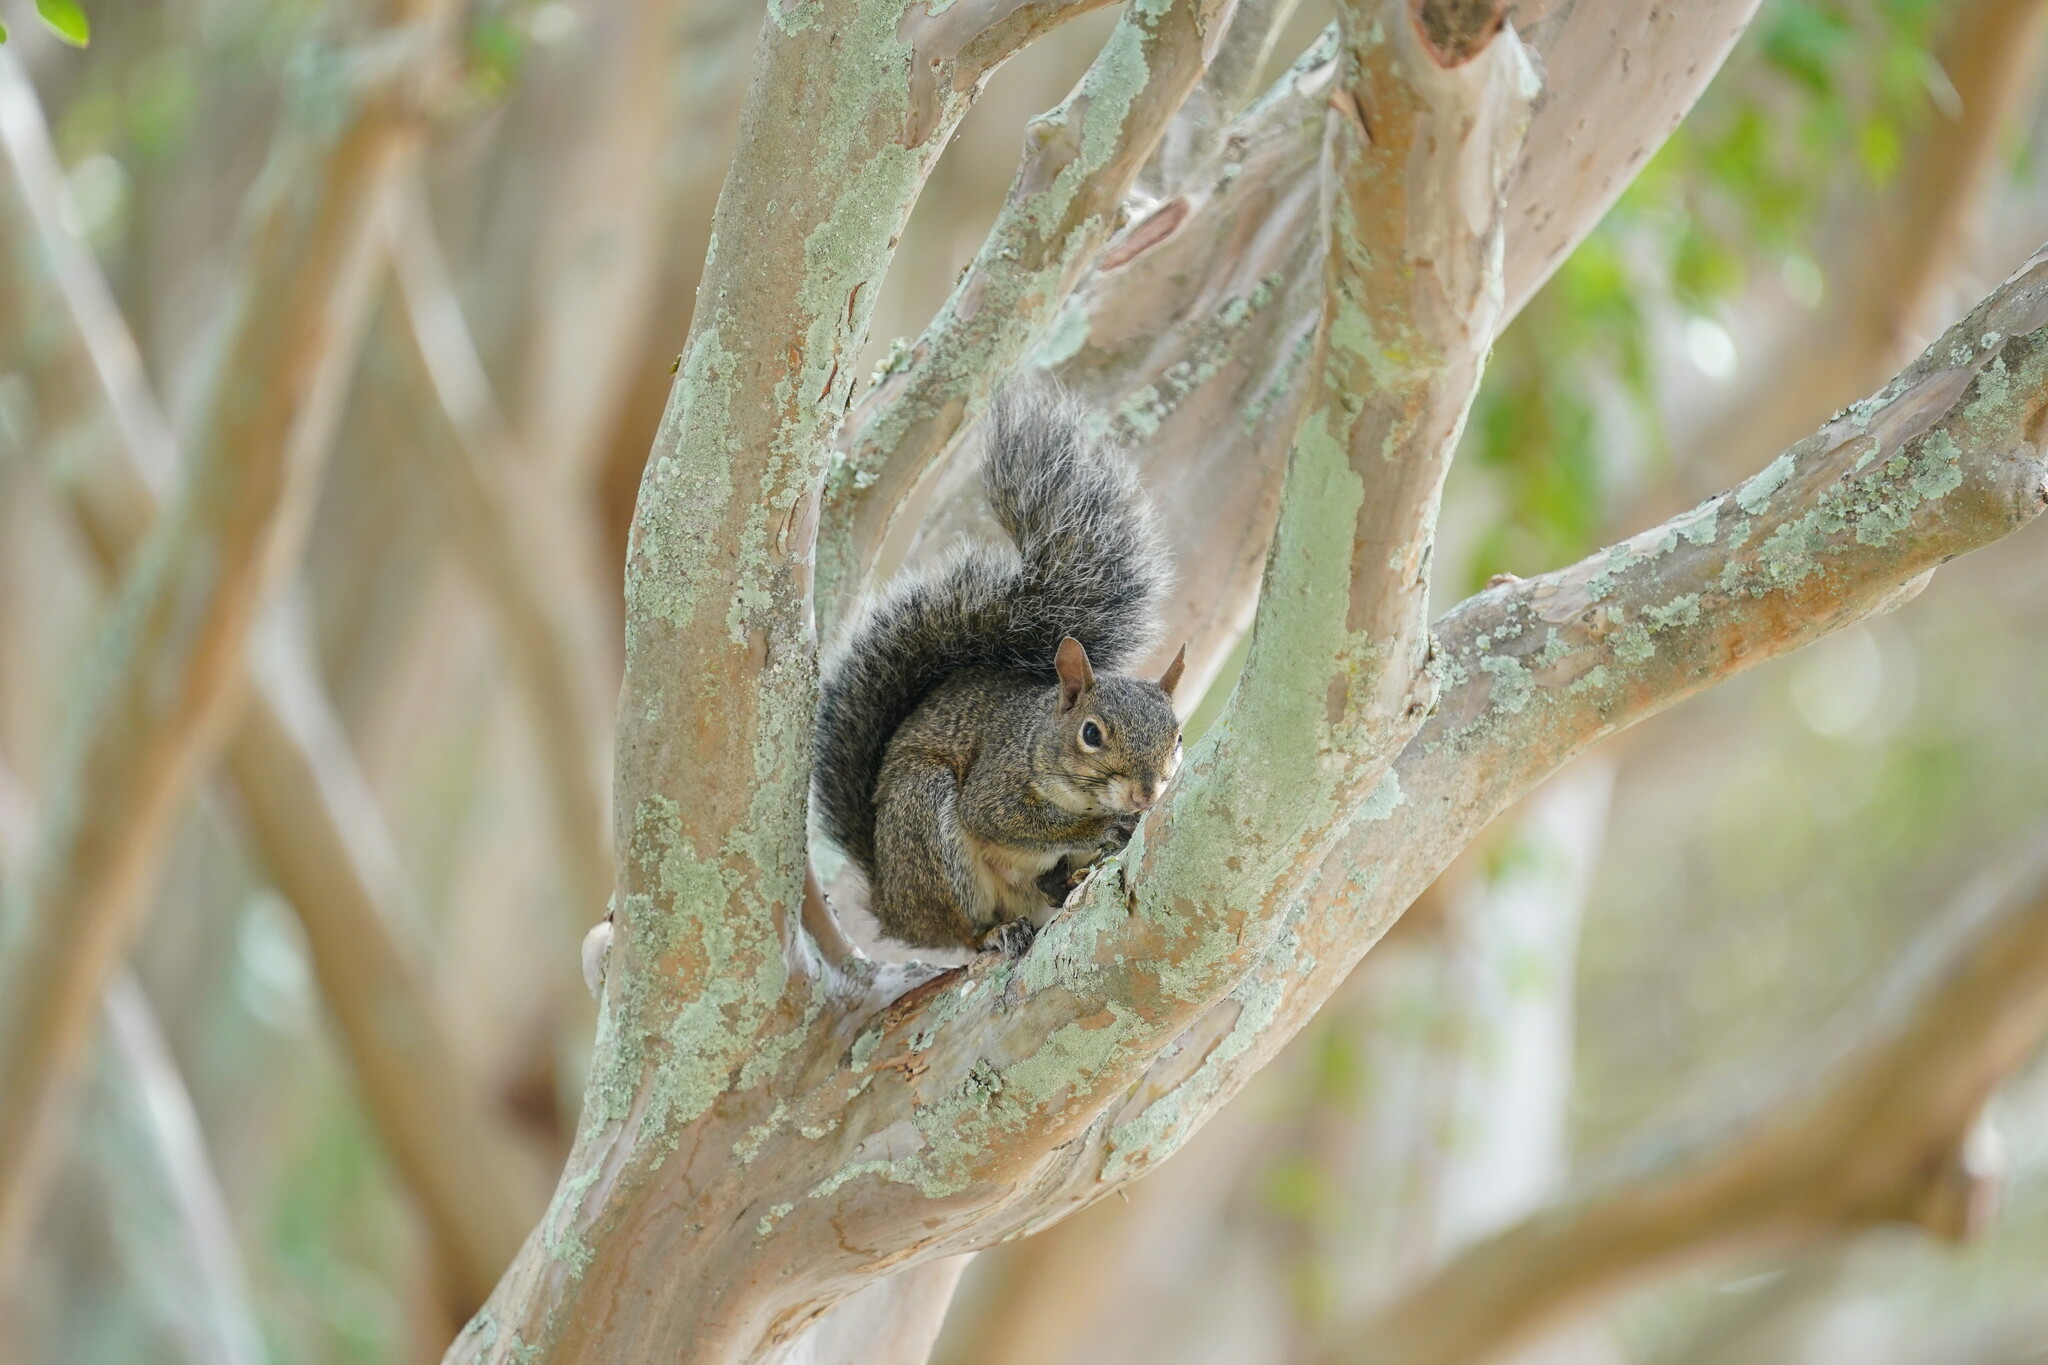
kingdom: Animalia
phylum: Chordata
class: Mammalia
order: Rodentia
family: Sciuridae
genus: Sciurus
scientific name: Sciurus carolinensis
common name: Eastern gray squirrel
